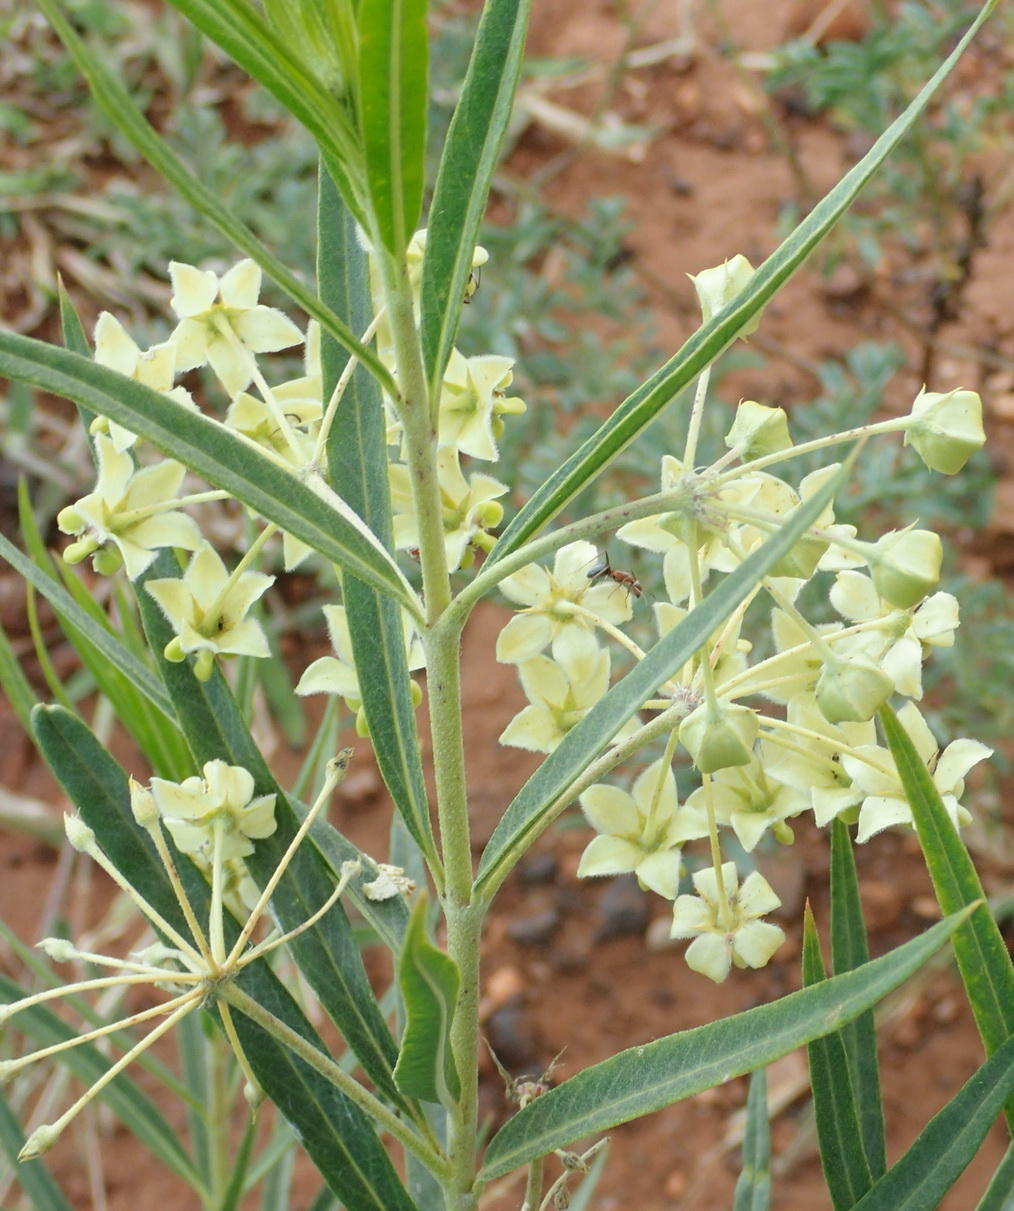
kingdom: Plantae
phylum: Tracheophyta
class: Magnoliopsida
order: Gentianales
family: Apocynaceae
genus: Gomphocarpus
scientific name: Gomphocarpus fruticosus
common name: Milkweed
